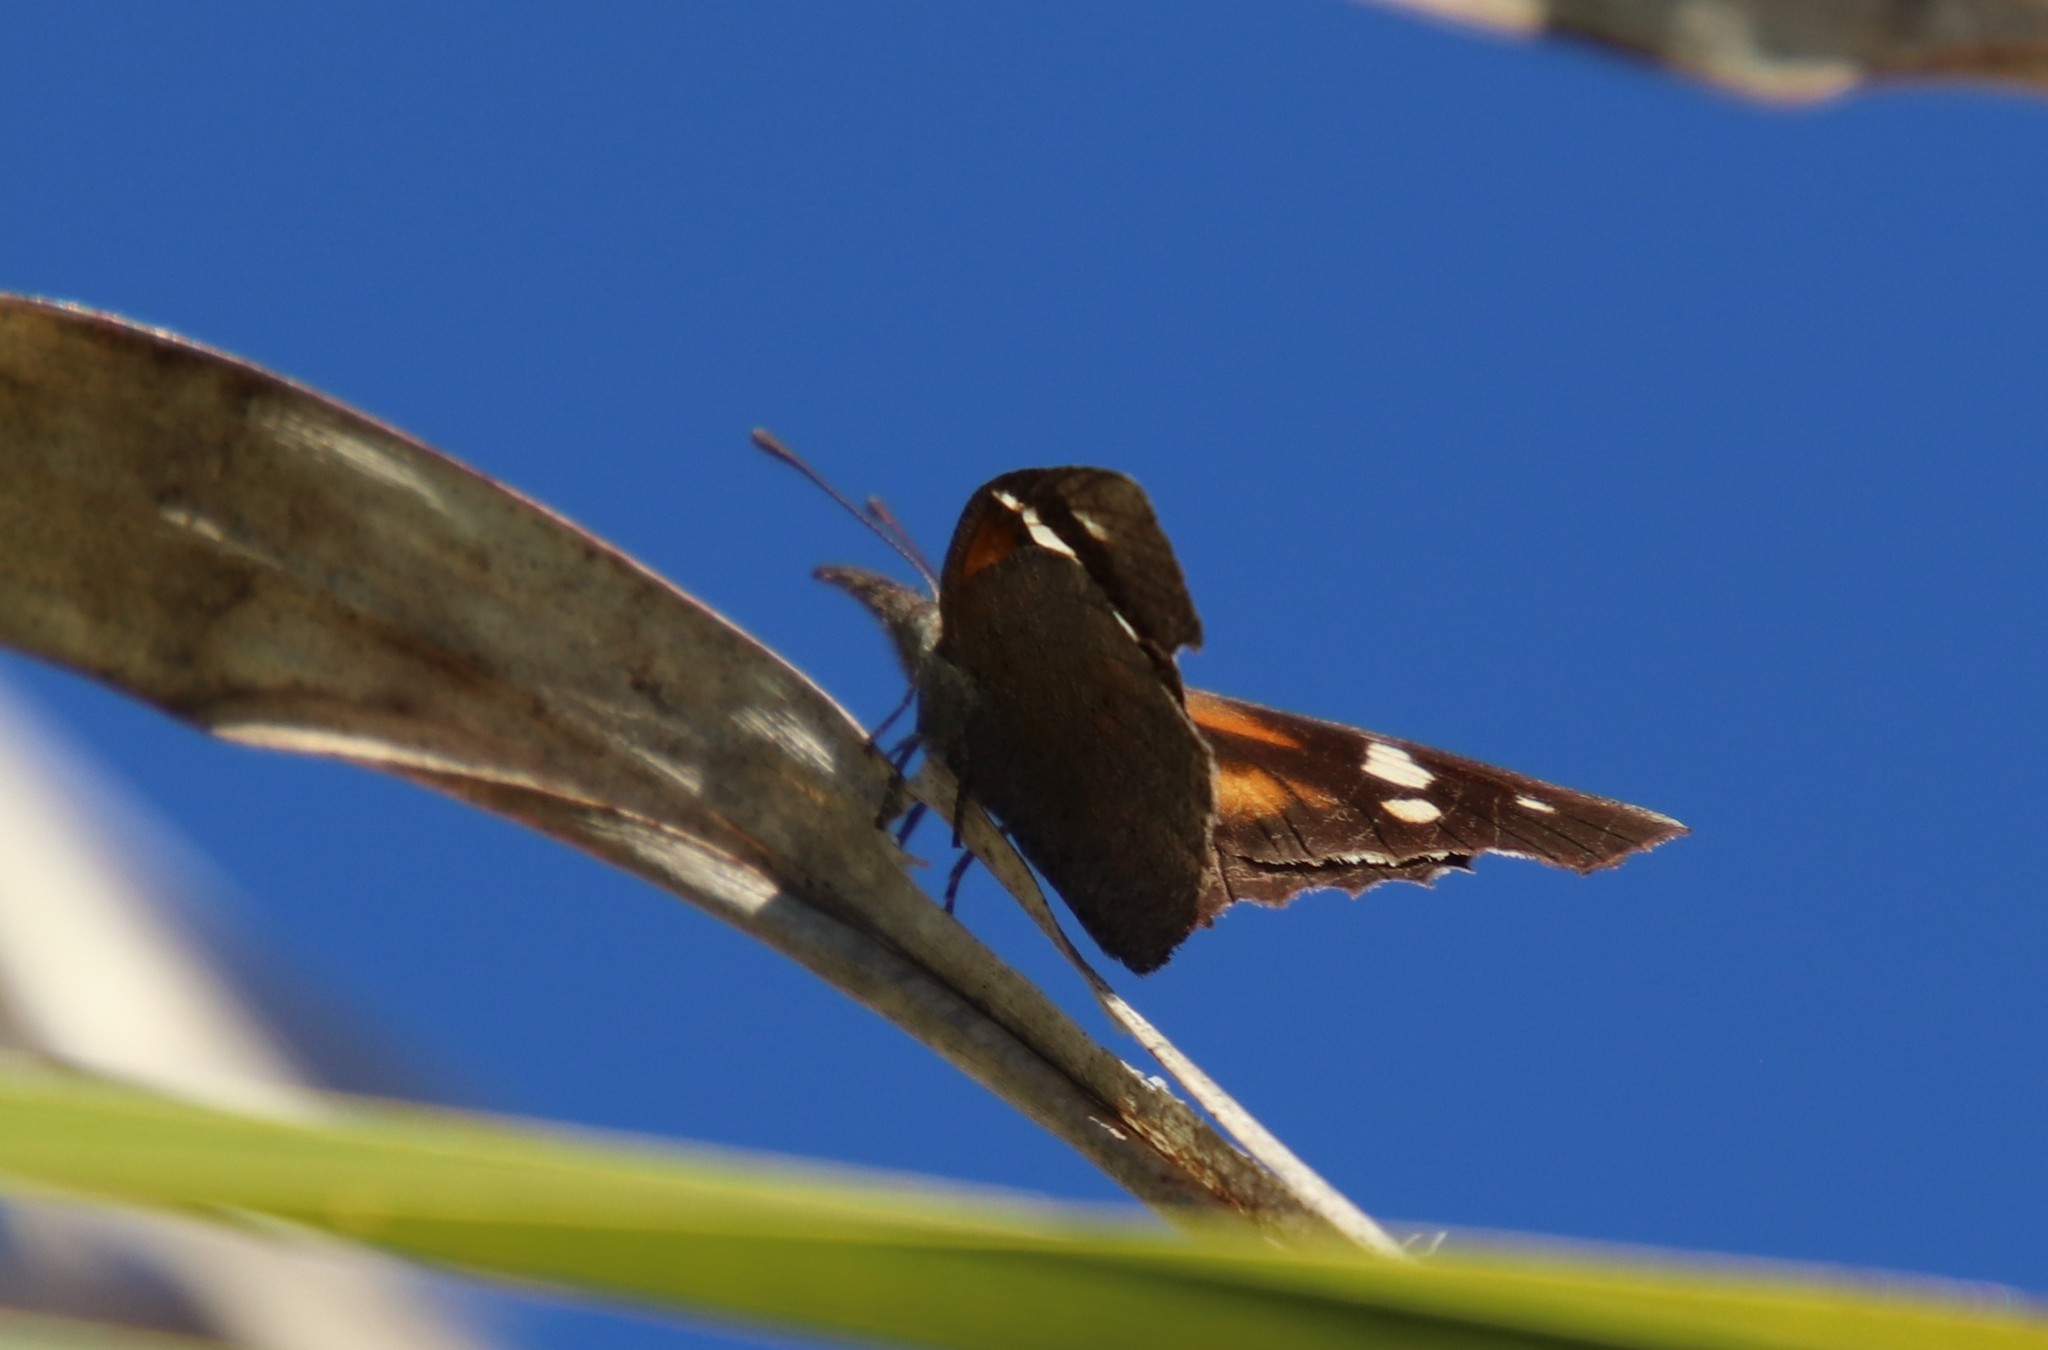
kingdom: Animalia
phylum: Arthropoda
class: Insecta
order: Lepidoptera
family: Nymphalidae
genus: Libytheana
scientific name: Libytheana carinenta
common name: American snout
